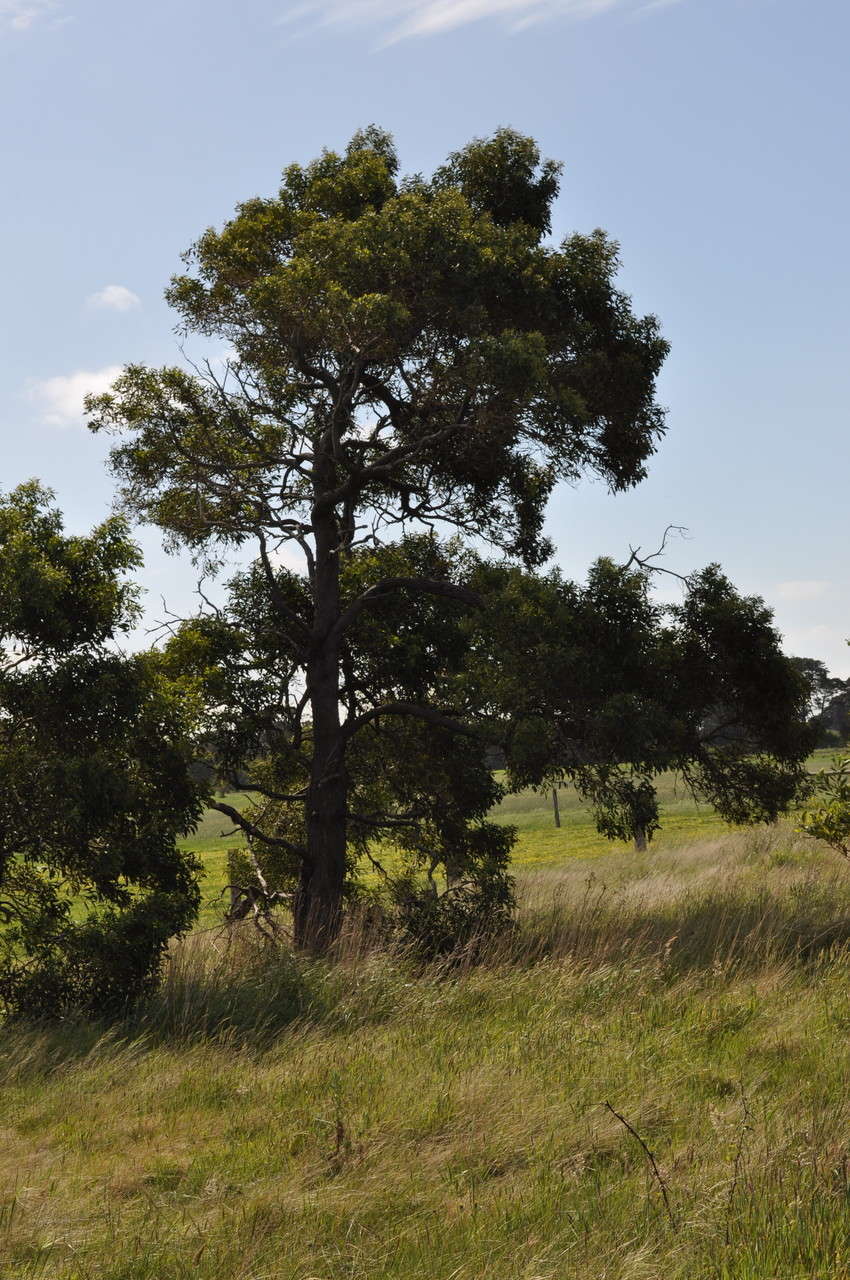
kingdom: Plantae
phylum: Tracheophyta
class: Magnoliopsida
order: Fabales
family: Fabaceae
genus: Acacia
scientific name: Acacia melanoxylon
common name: Blackwood
